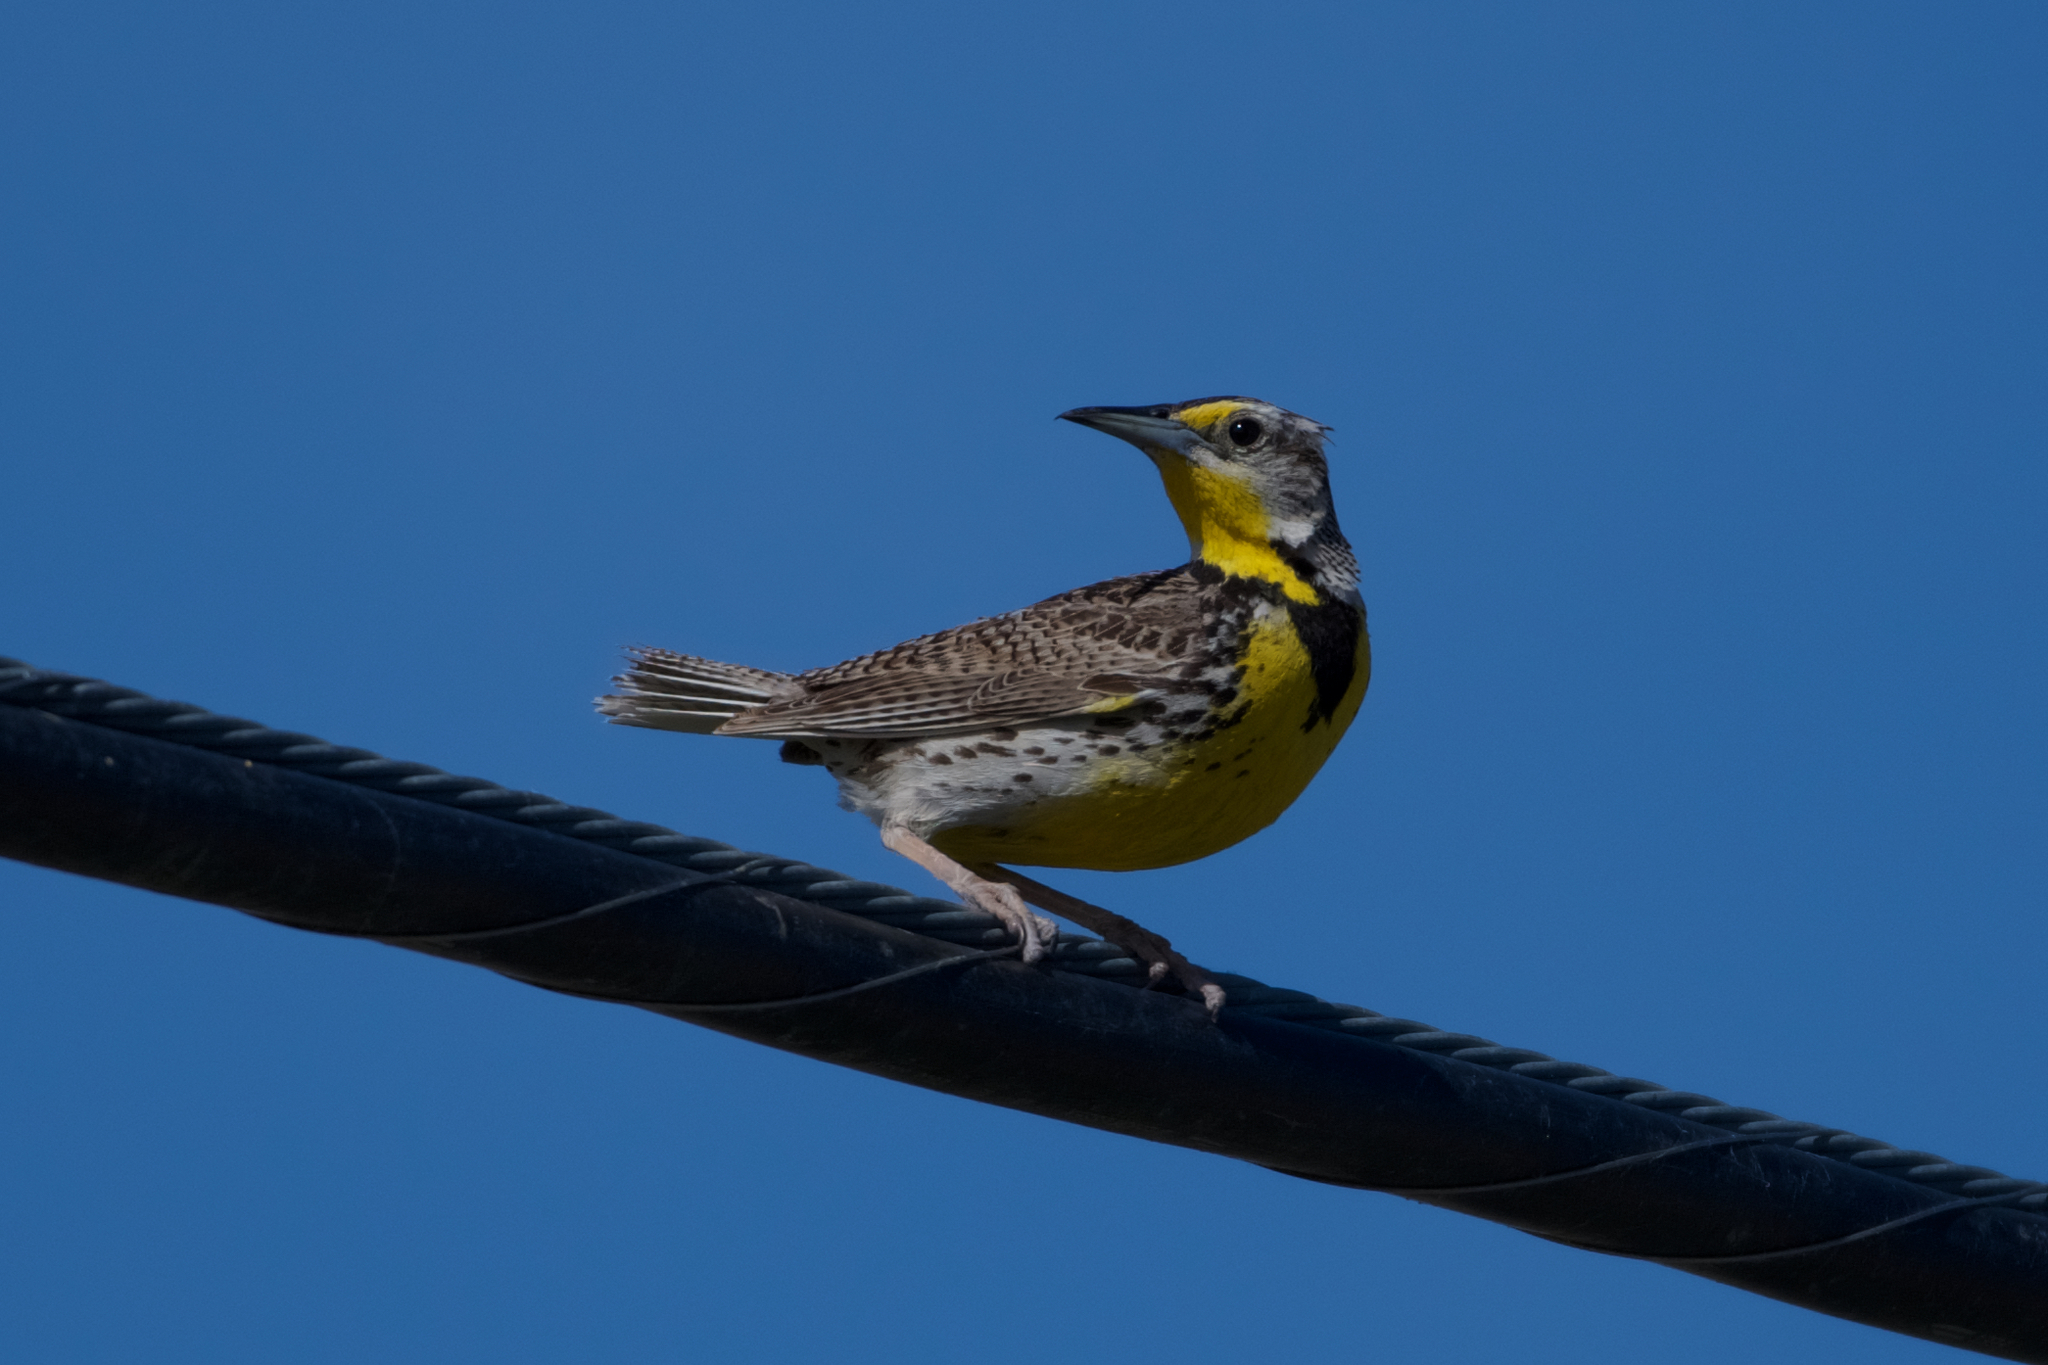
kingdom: Animalia
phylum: Chordata
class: Aves
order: Passeriformes
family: Icteridae
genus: Sturnella
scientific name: Sturnella neglecta
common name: Western meadowlark
